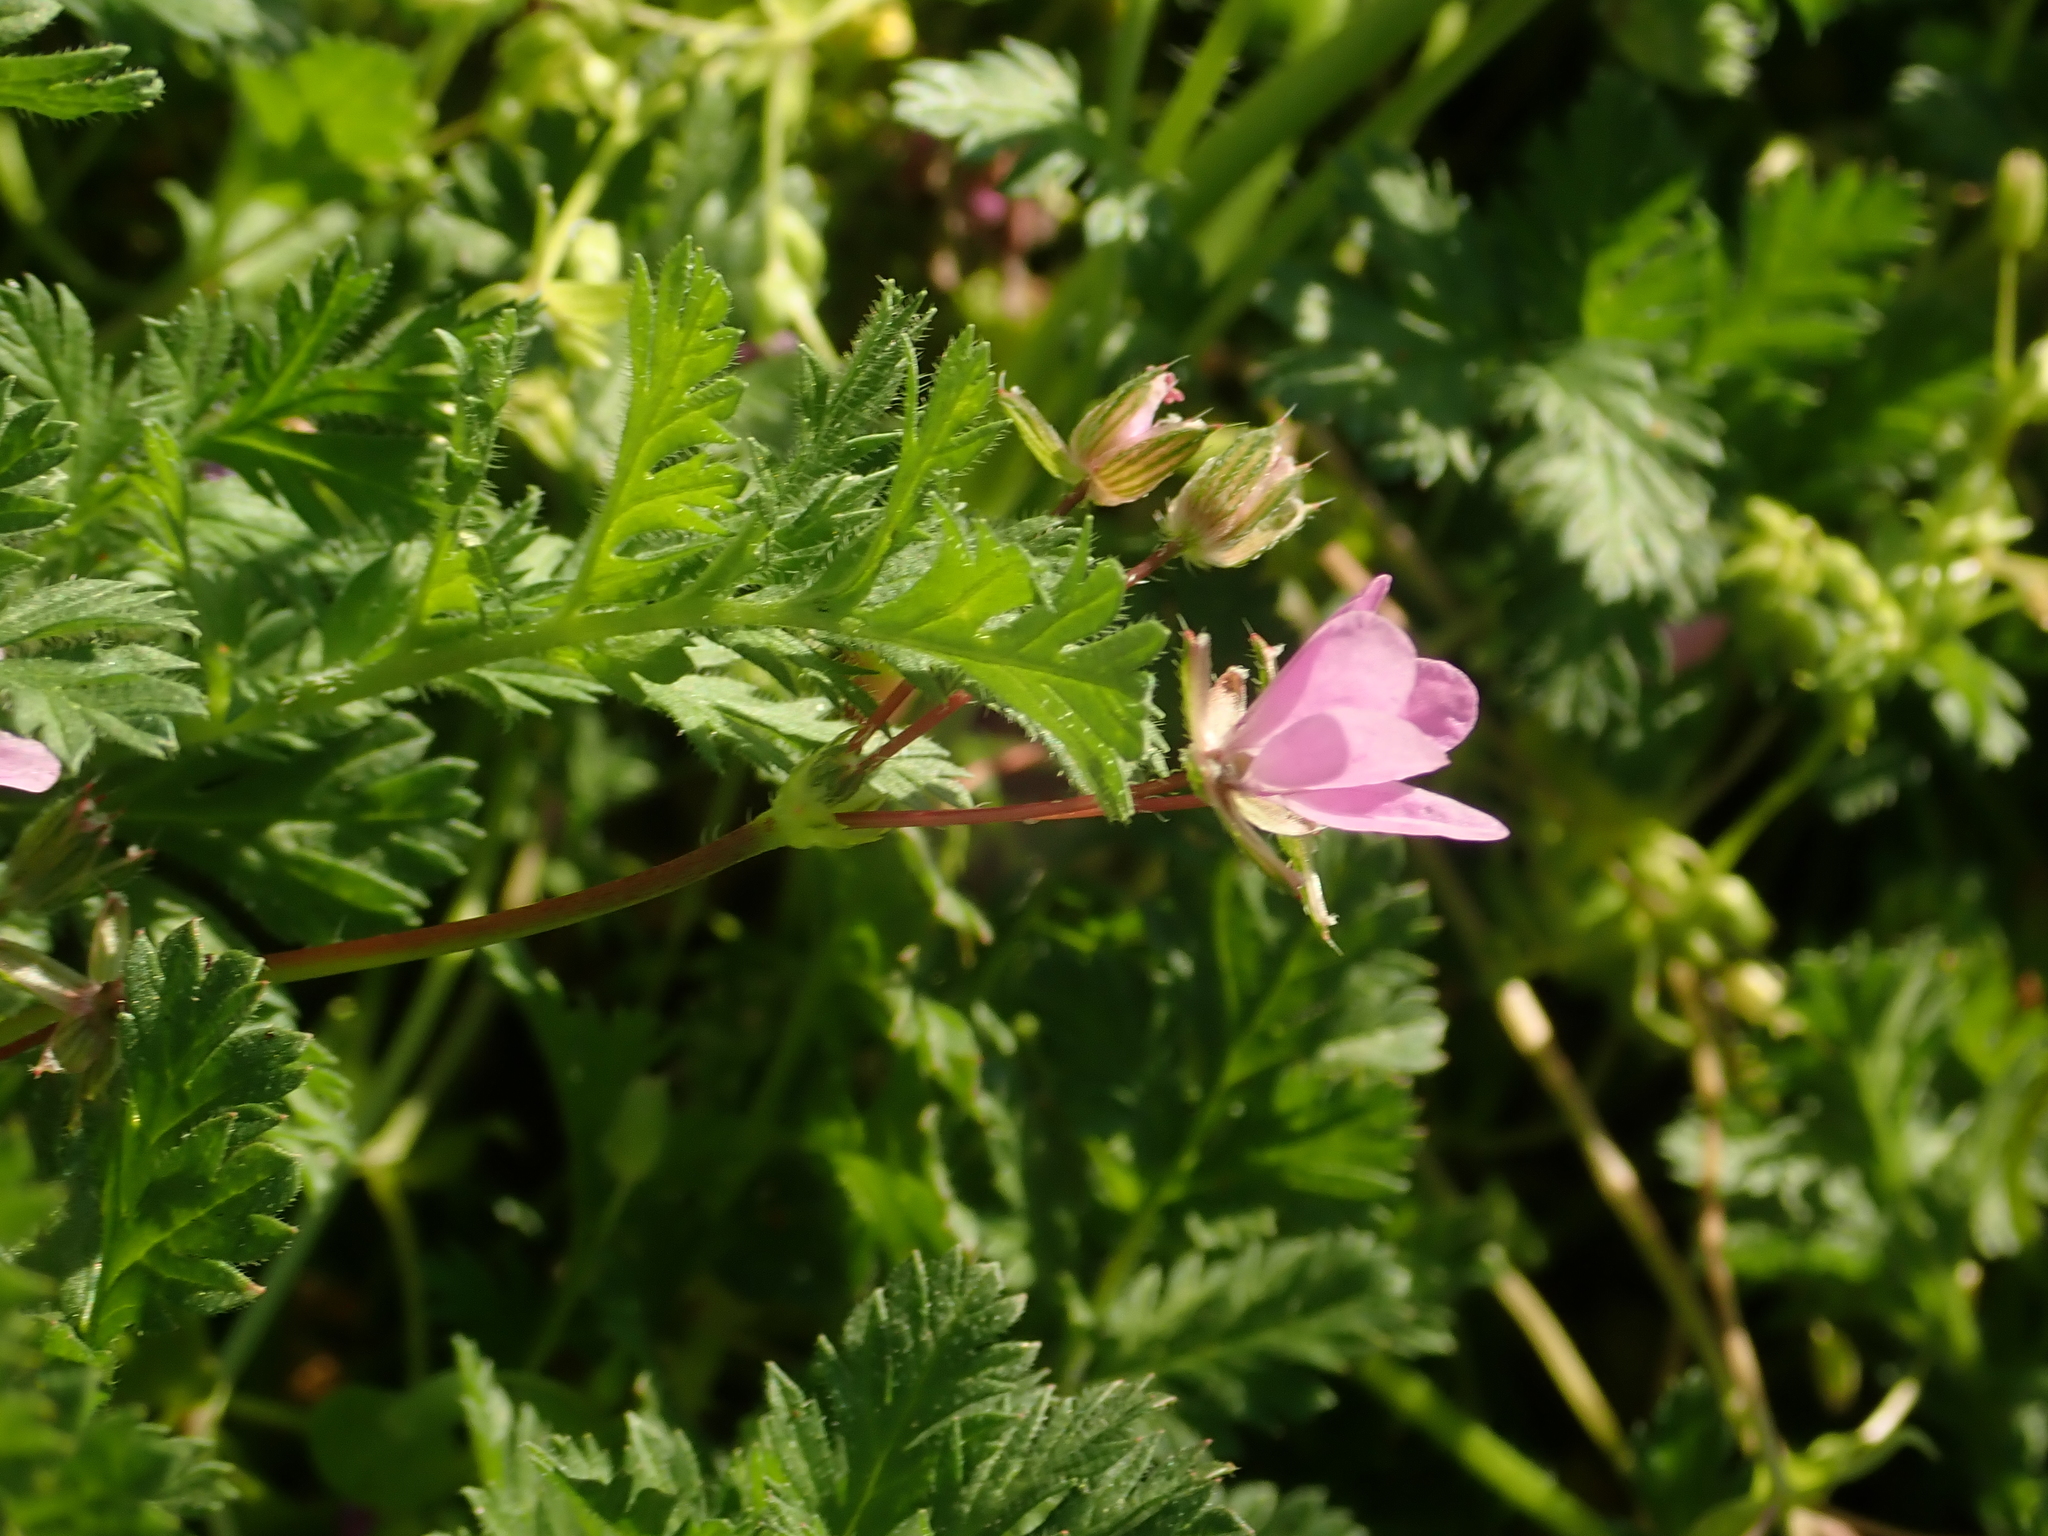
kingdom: Plantae
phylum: Tracheophyta
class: Magnoliopsida
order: Geraniales
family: Geraniaceae
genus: Erodium
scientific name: Erodium cicutarium
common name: Common stork's-bill
